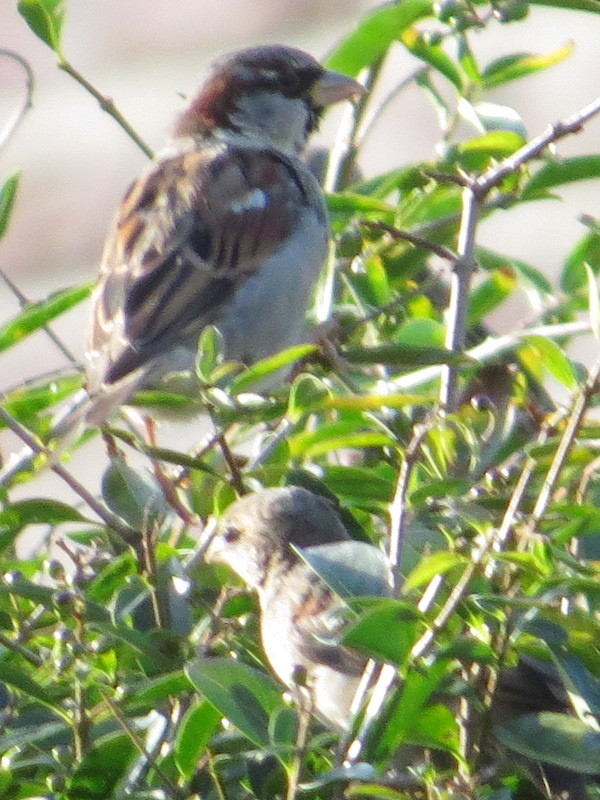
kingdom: Animalia
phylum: Chordata
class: Aves
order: Passeriformes
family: Passeridae
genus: Passer
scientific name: Passer domesticus
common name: House sparrow
